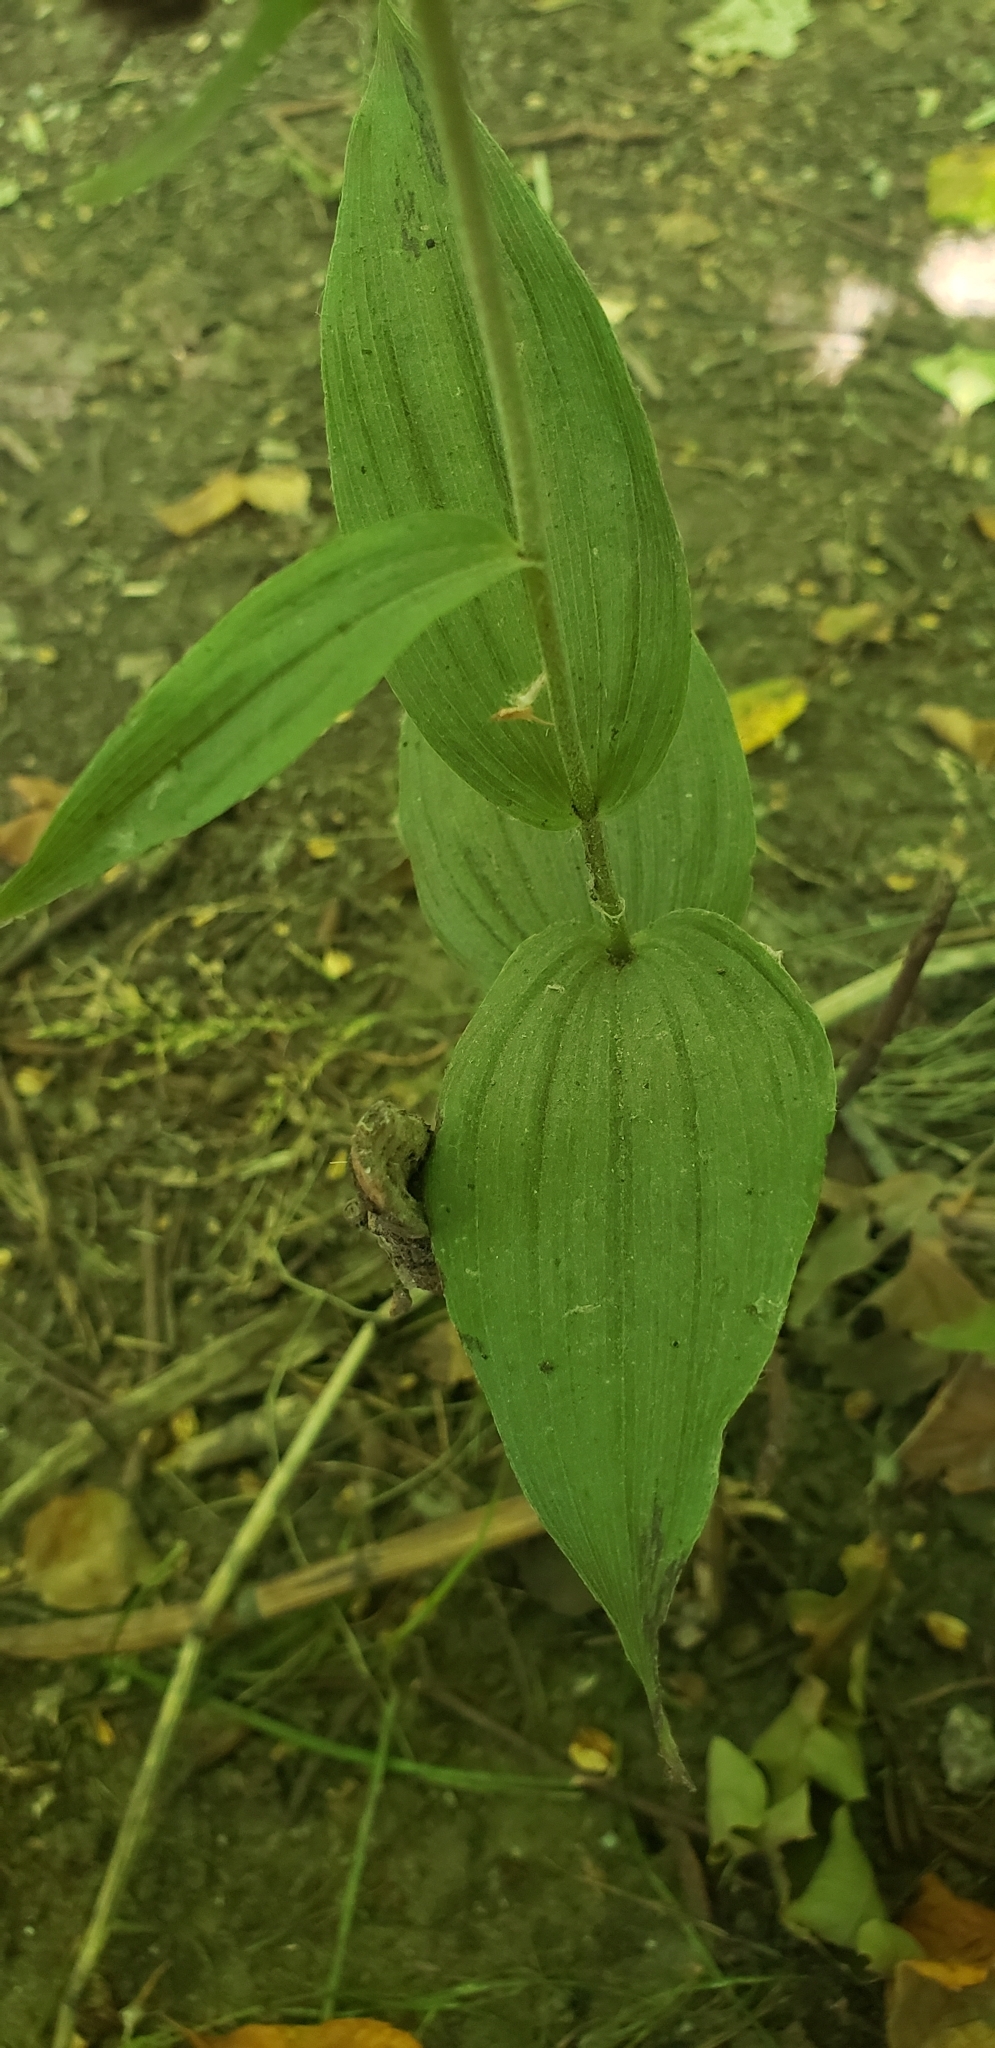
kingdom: Plantae
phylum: Tracheophyta
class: Liliopsida
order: Asparagales
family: Orchidaceae
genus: Epipactis
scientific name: Epipactis helleborine
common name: Broad-leaved helleborine
